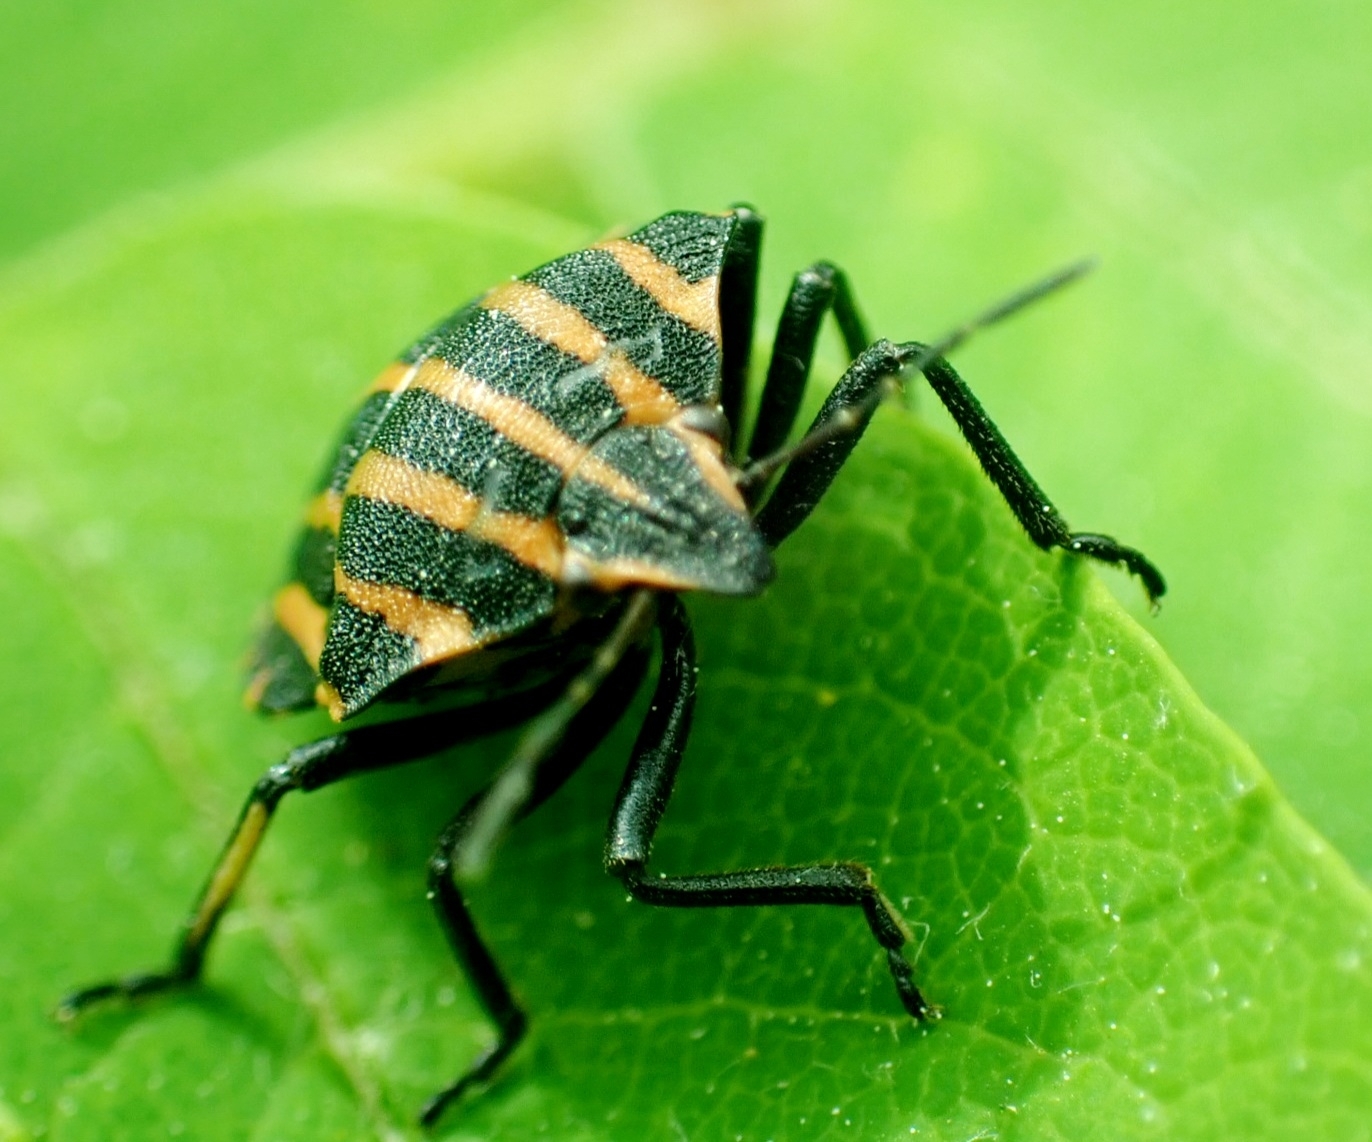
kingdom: Animalia
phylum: Arthropoda
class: Insecta
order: Hemiptera
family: Pentatomidae
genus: Graphosoma
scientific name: Graphosoma italicum
